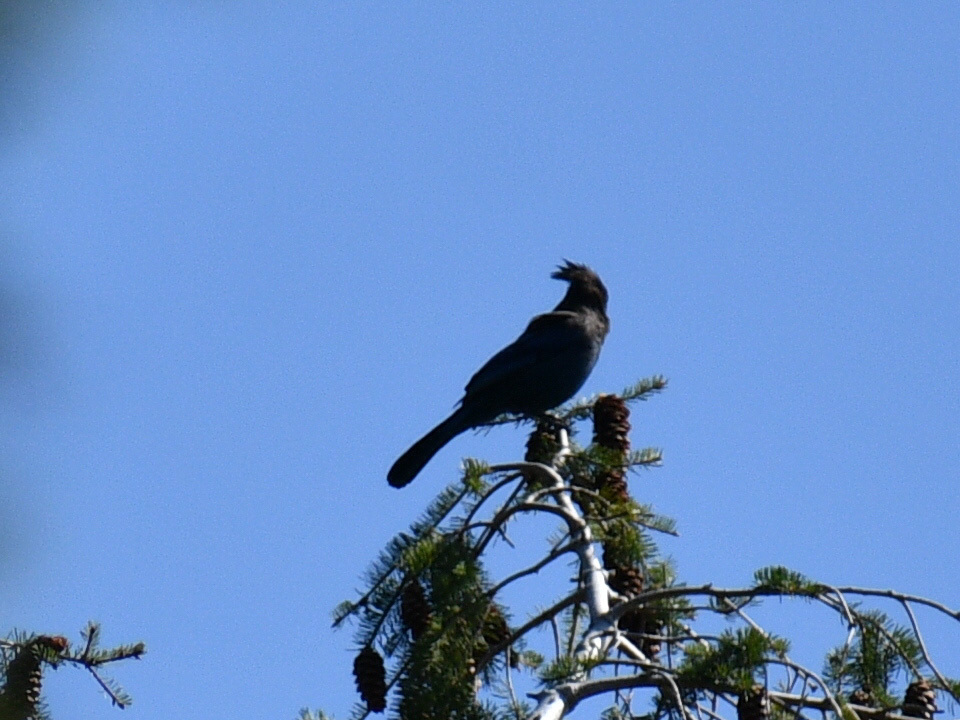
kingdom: Animalia
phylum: Chordata
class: Aves
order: Passeriformes
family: Corvidae
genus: Cyanocitta
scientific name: Cyanocitta stelleri
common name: Steller's jay
